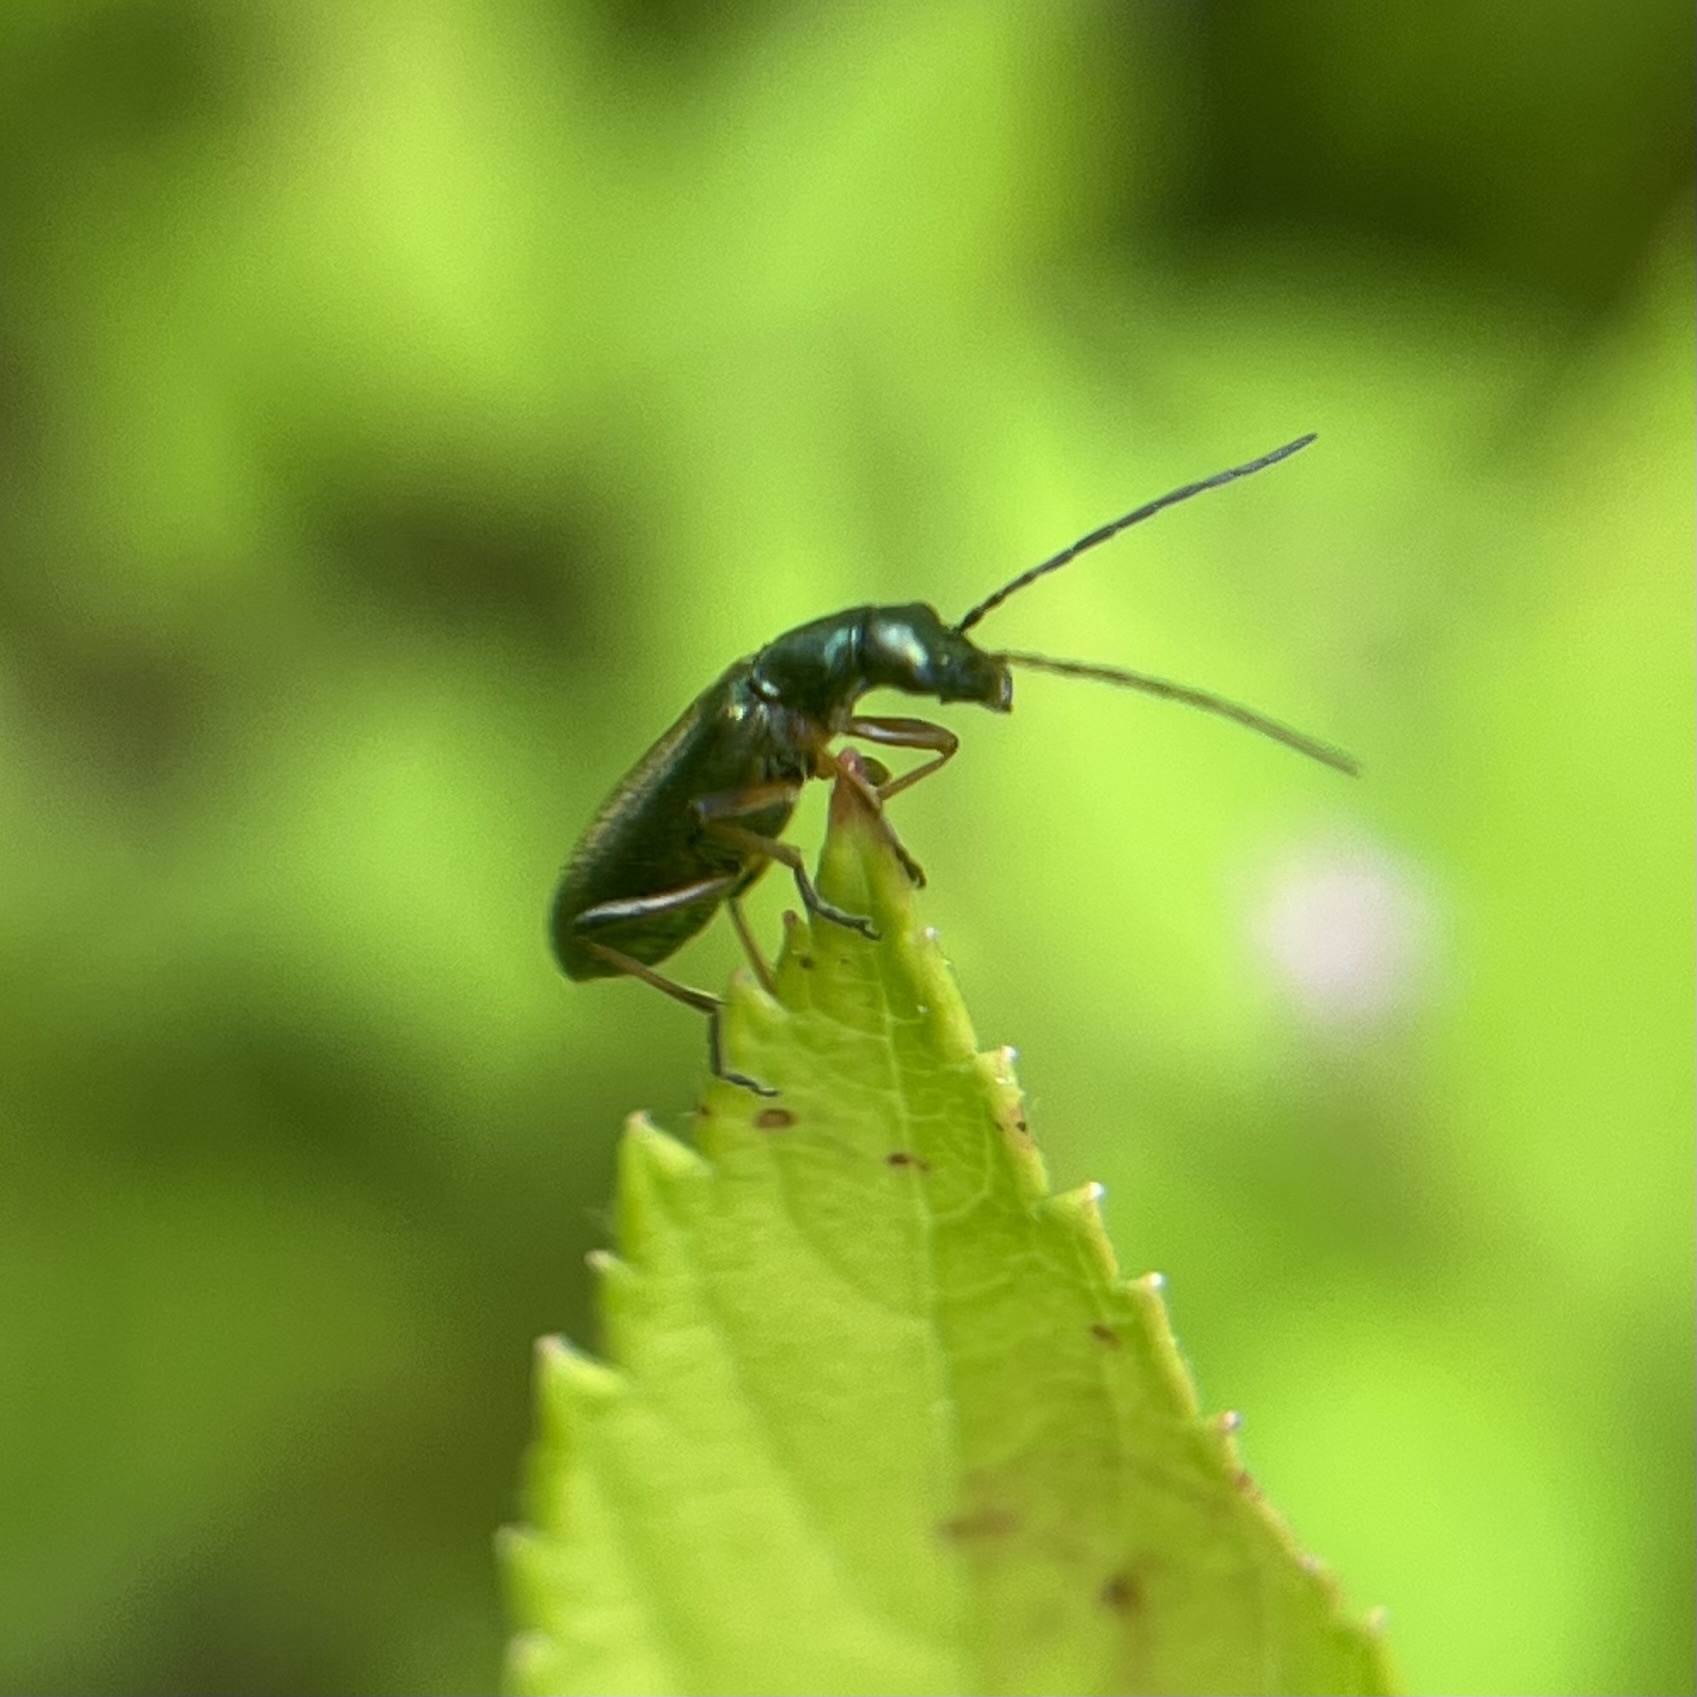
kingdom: Animalia
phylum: Arthropoda
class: Insecta
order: Coleoptera
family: Oedemeridae
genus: Chrysanthia
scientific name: Chrysanthia geniculata
